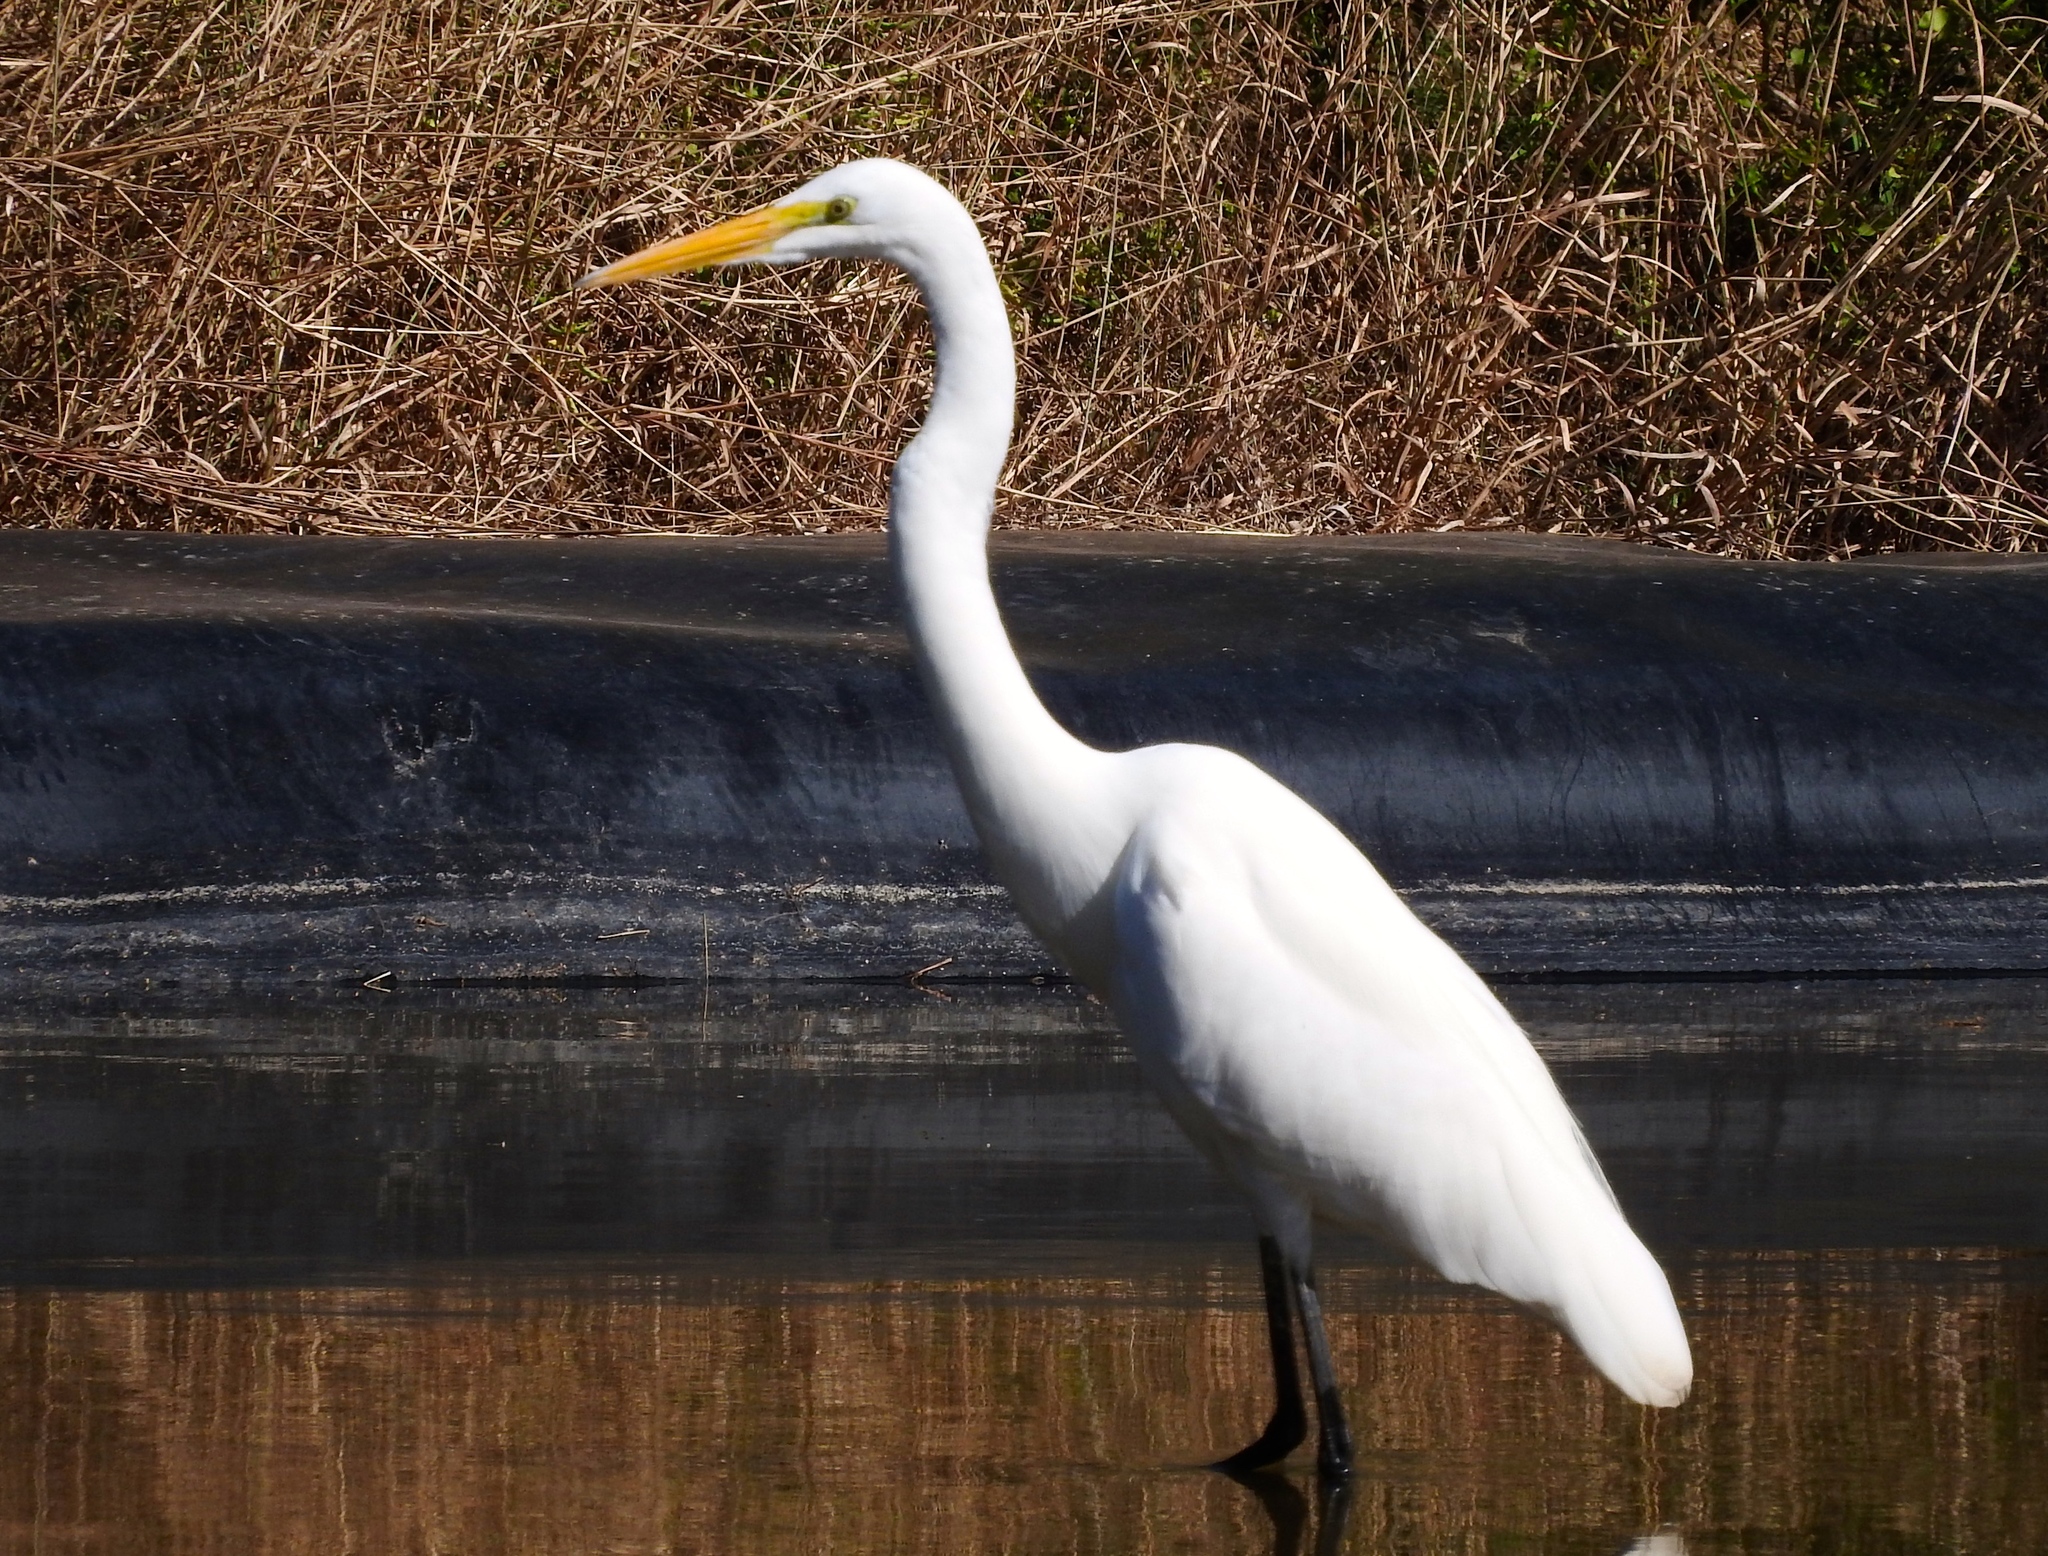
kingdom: Animalia
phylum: Chordata
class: Aves
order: Pelecaniformes
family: Ardeidae
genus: Ardea
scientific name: Ardea alba
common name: Great egret
